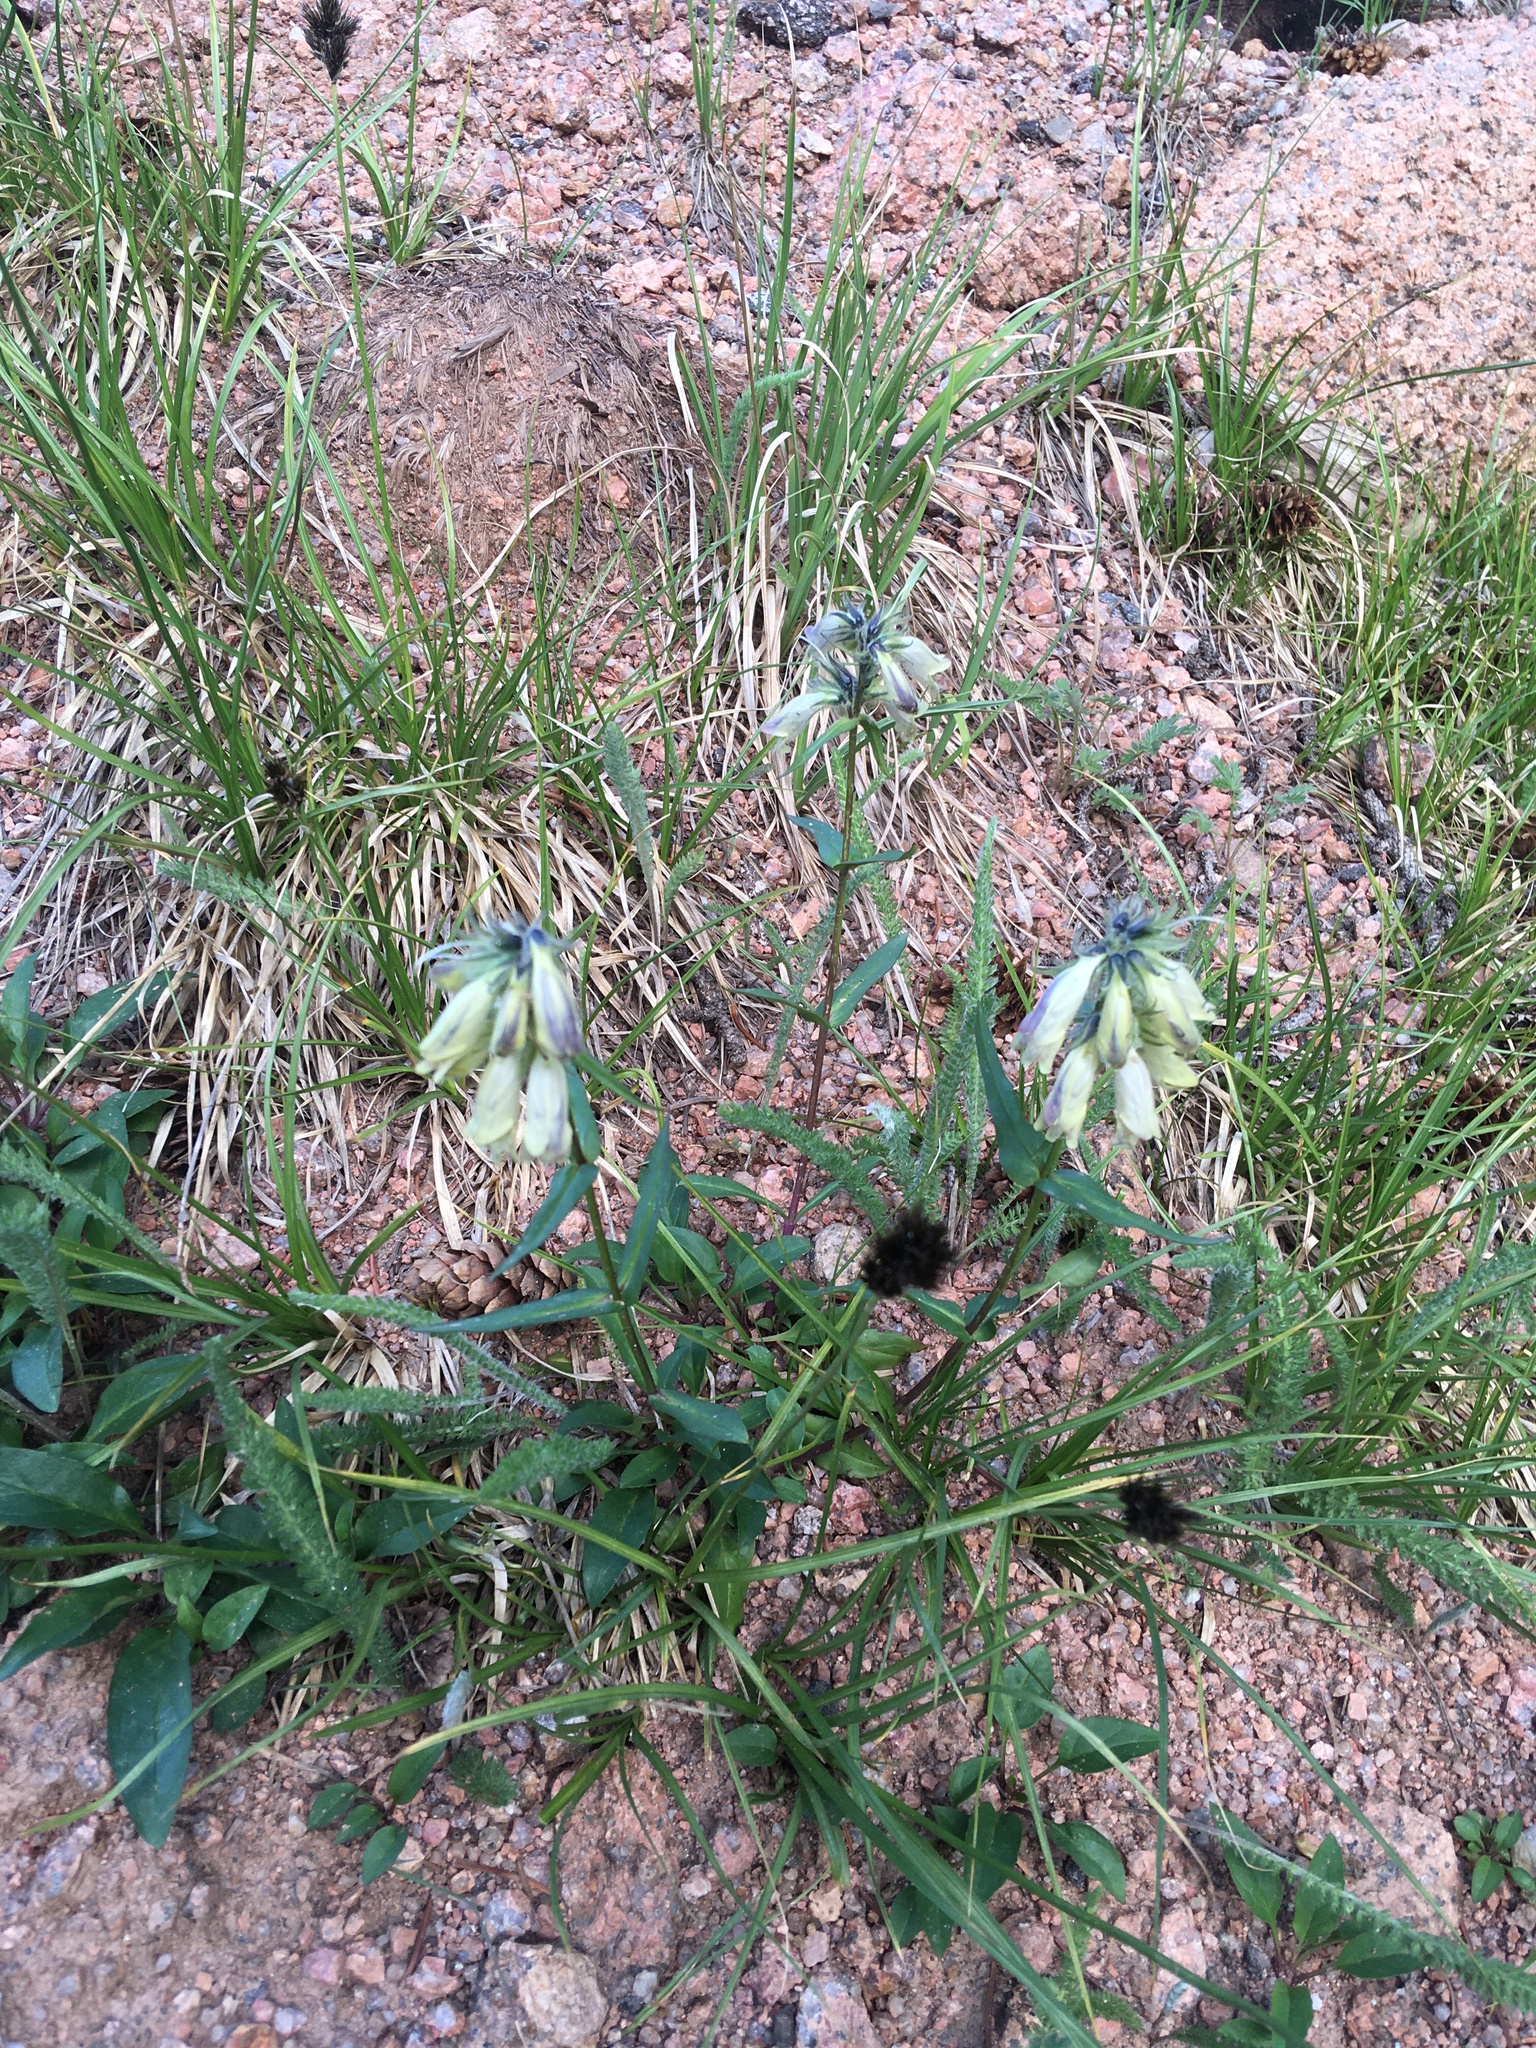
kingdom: Plantae
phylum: Tracheophyta
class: Magnoliopsida
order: Lamiales
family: Plantaginaceae
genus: Penstemon
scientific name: Penstemon whippleanus
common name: Whipple's penstemon
